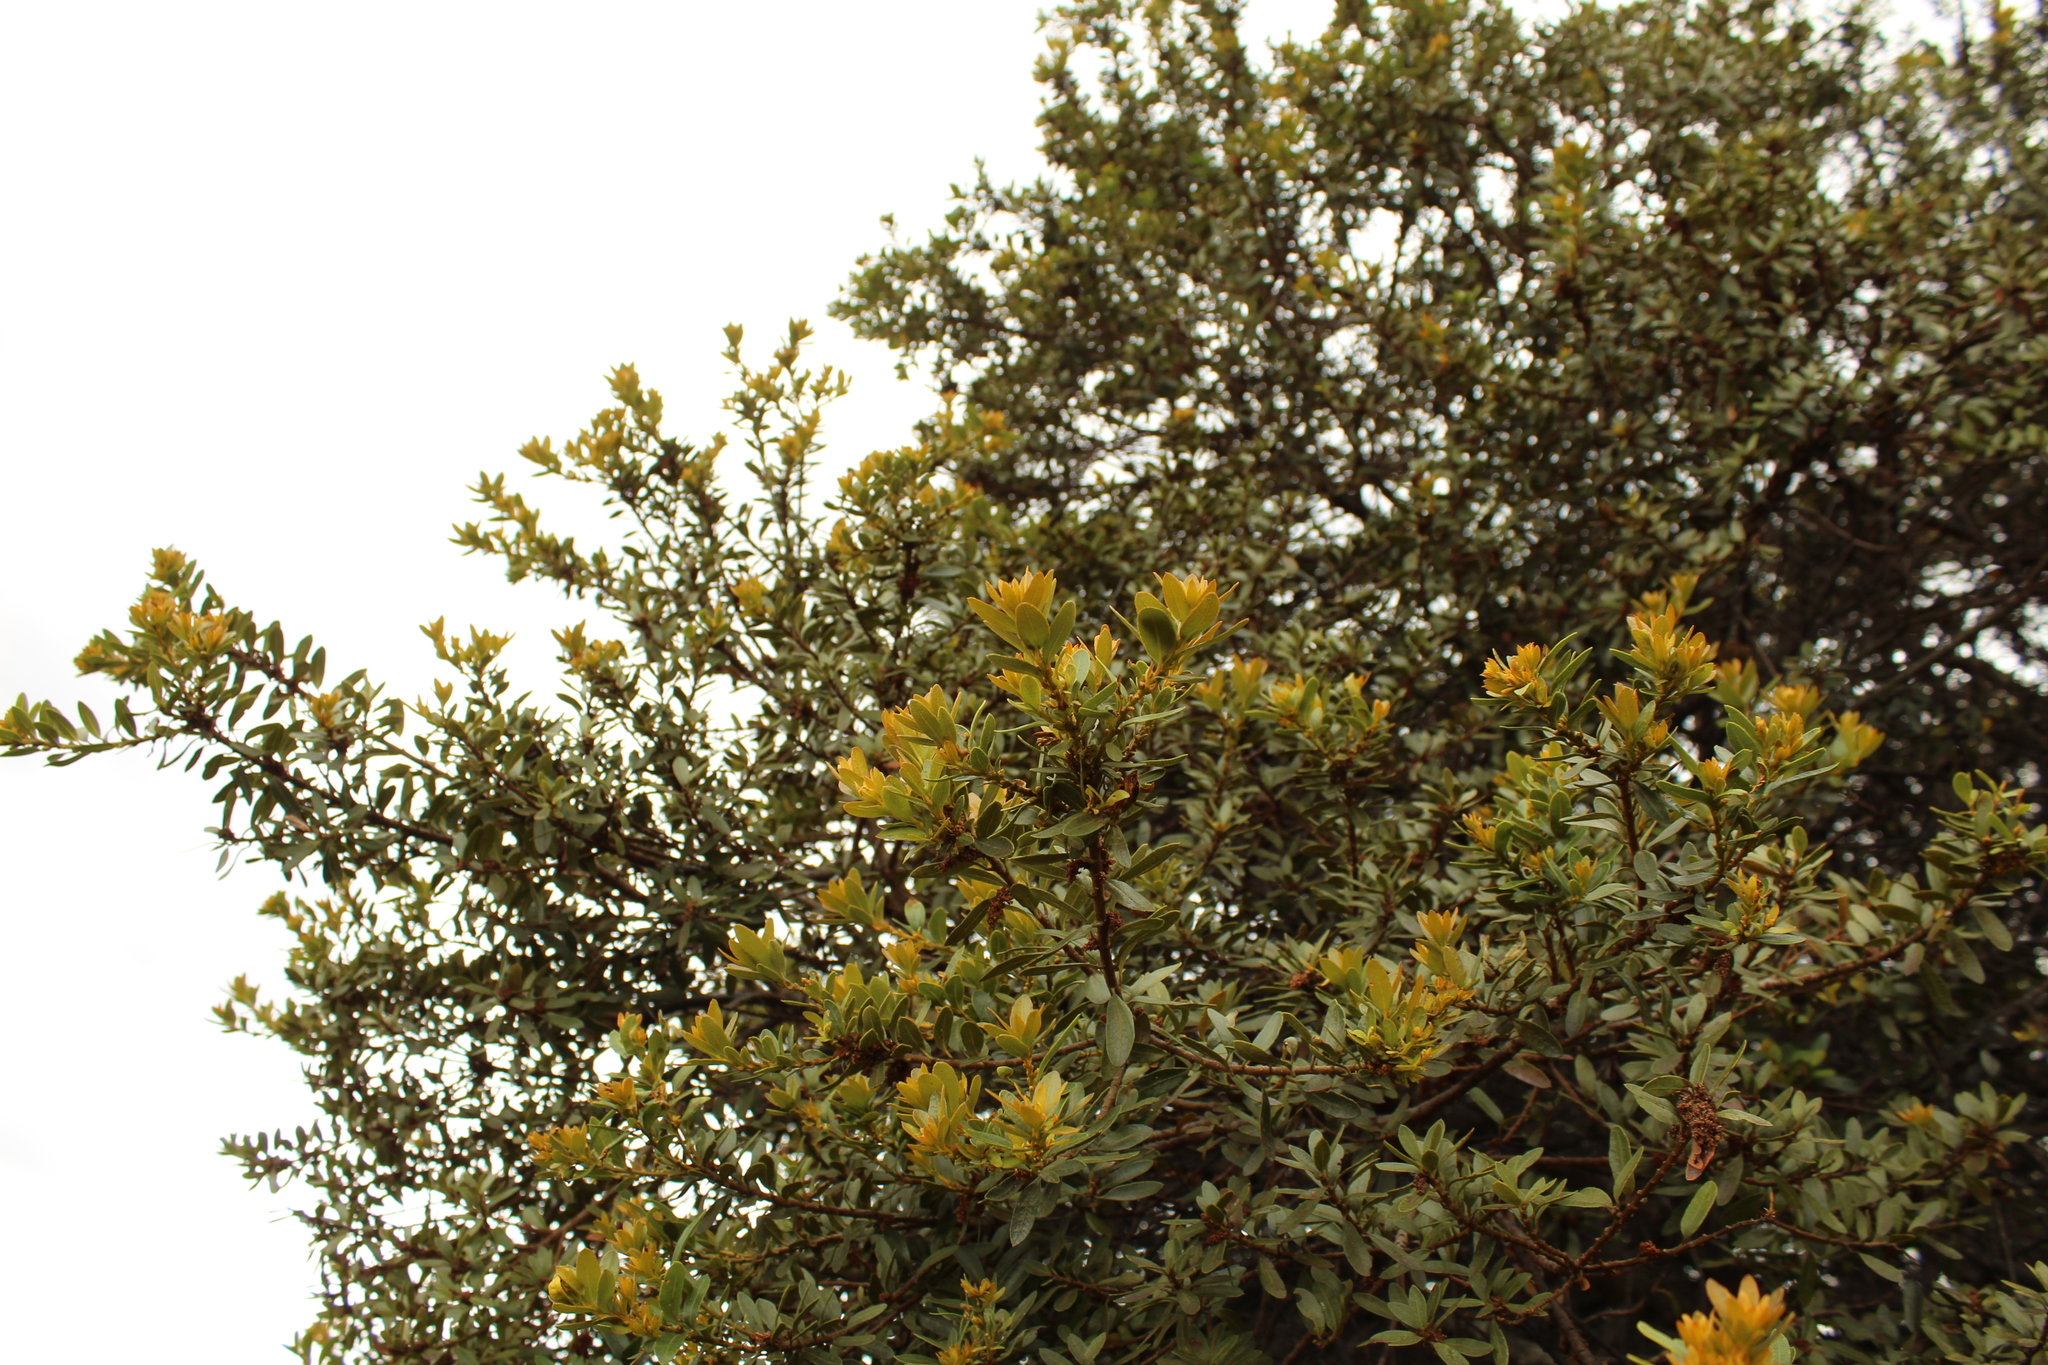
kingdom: Plantae
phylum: Tracheophyta
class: Magnoliopsida
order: Fagales
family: Myricaceae
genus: Morella
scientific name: Morella parvifolia
